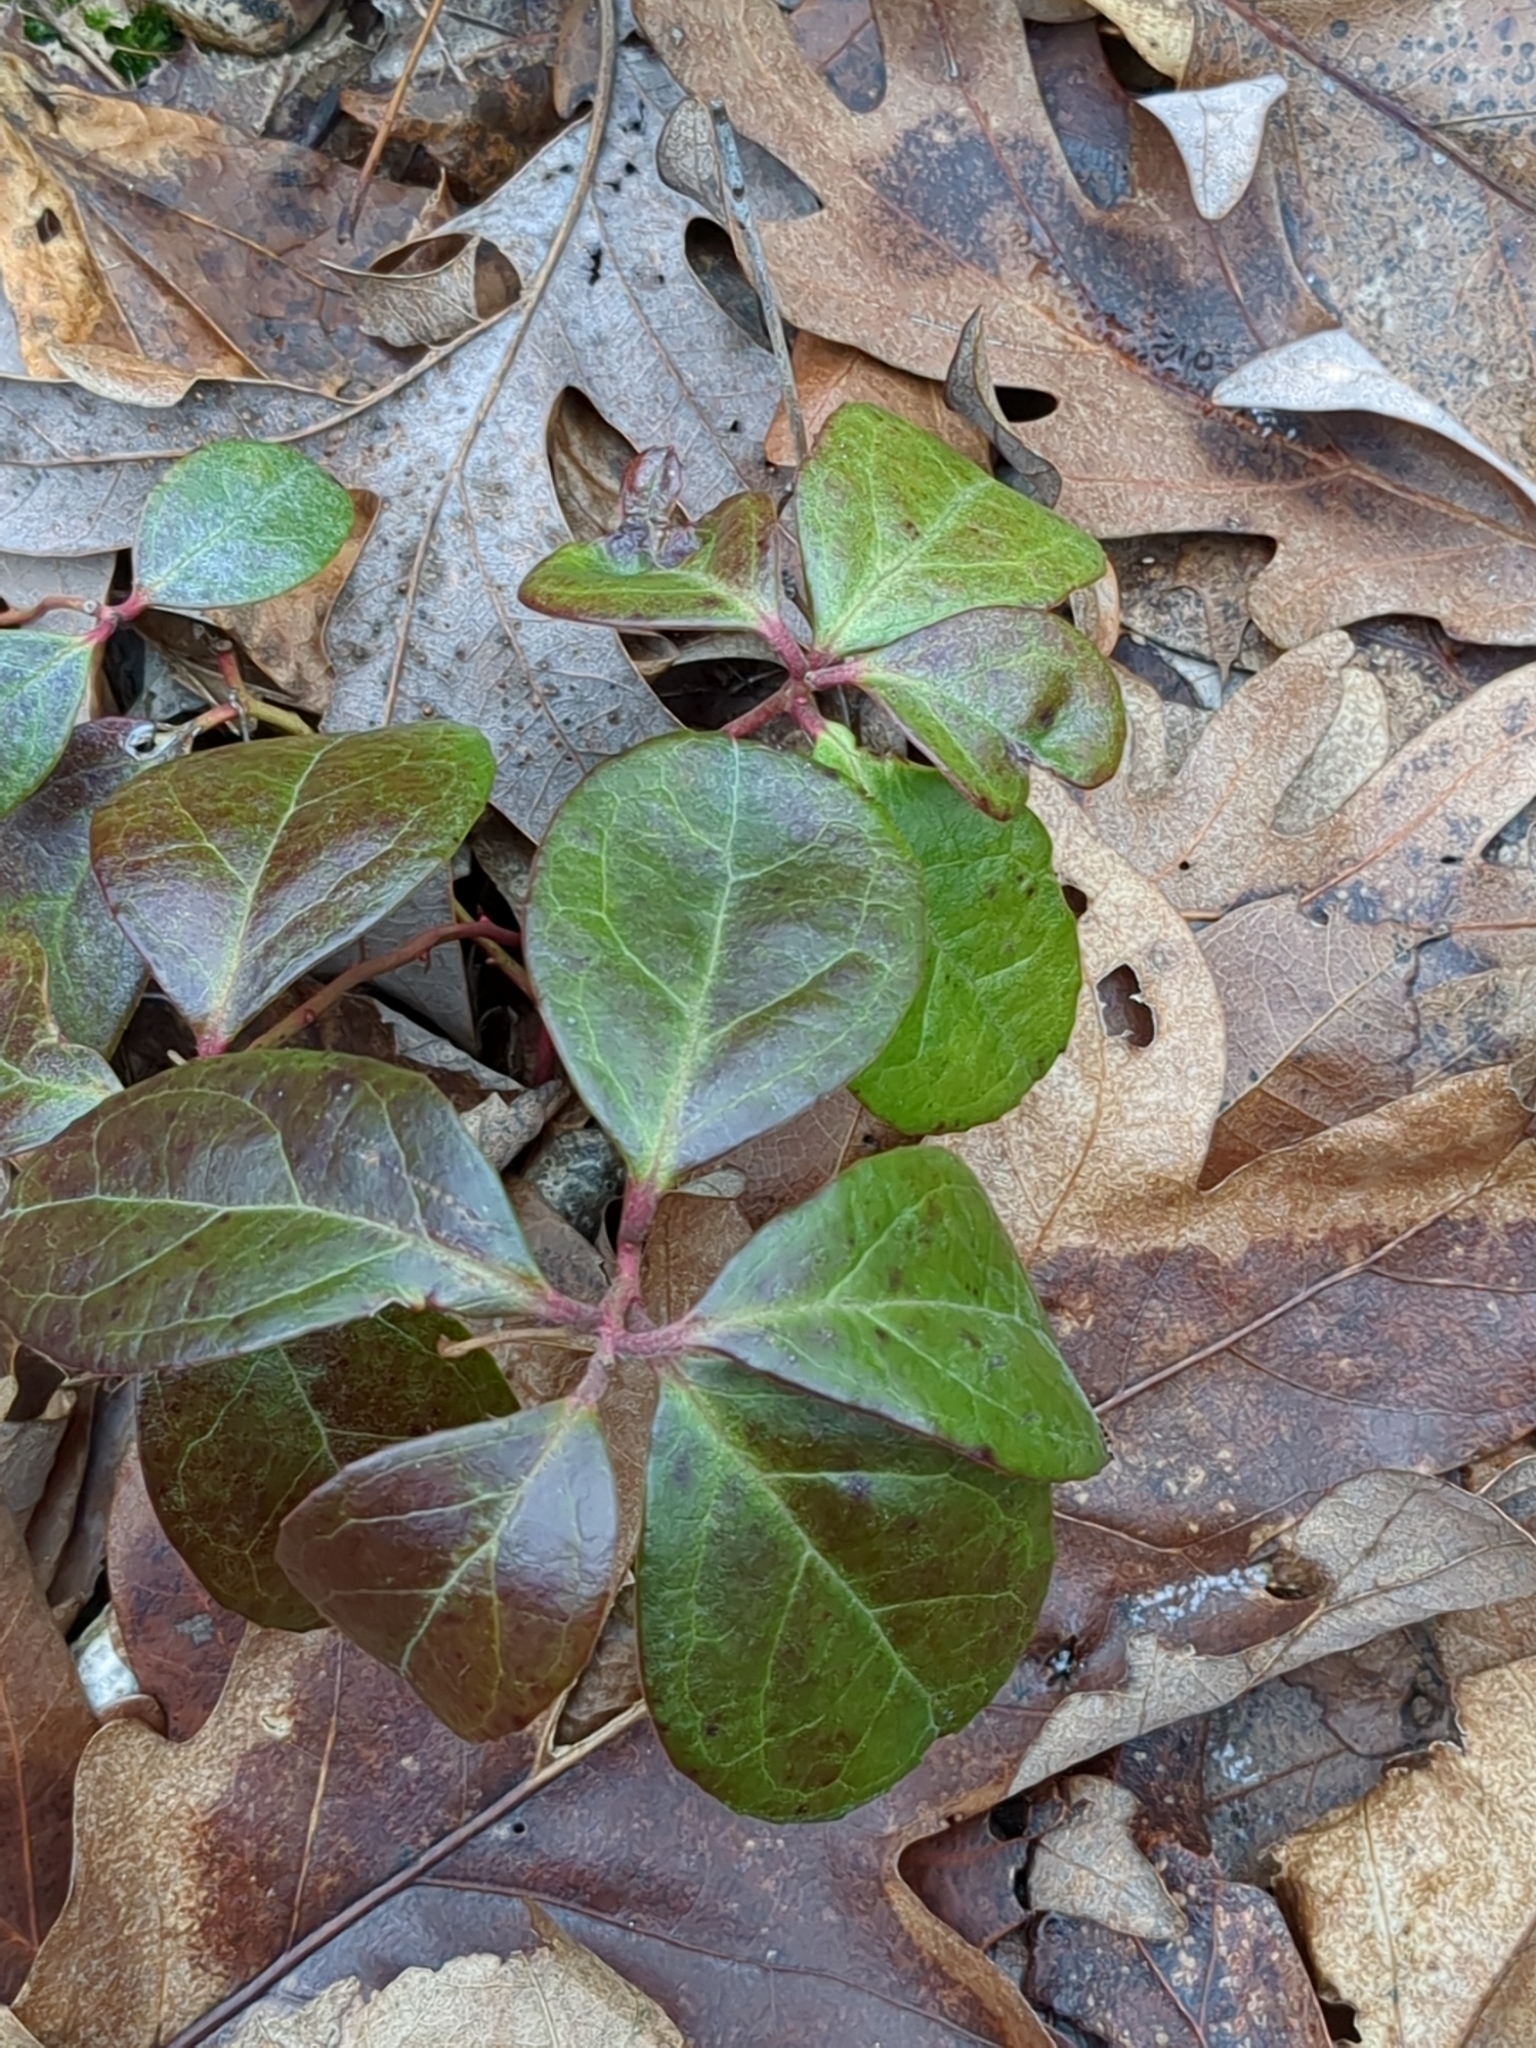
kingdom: Plantae
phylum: Tracheophyta
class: Magnoliopsida
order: Ericales
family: Ericaceae
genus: Gaultheria
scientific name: Gaultheria procumbens
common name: Checkerberry
